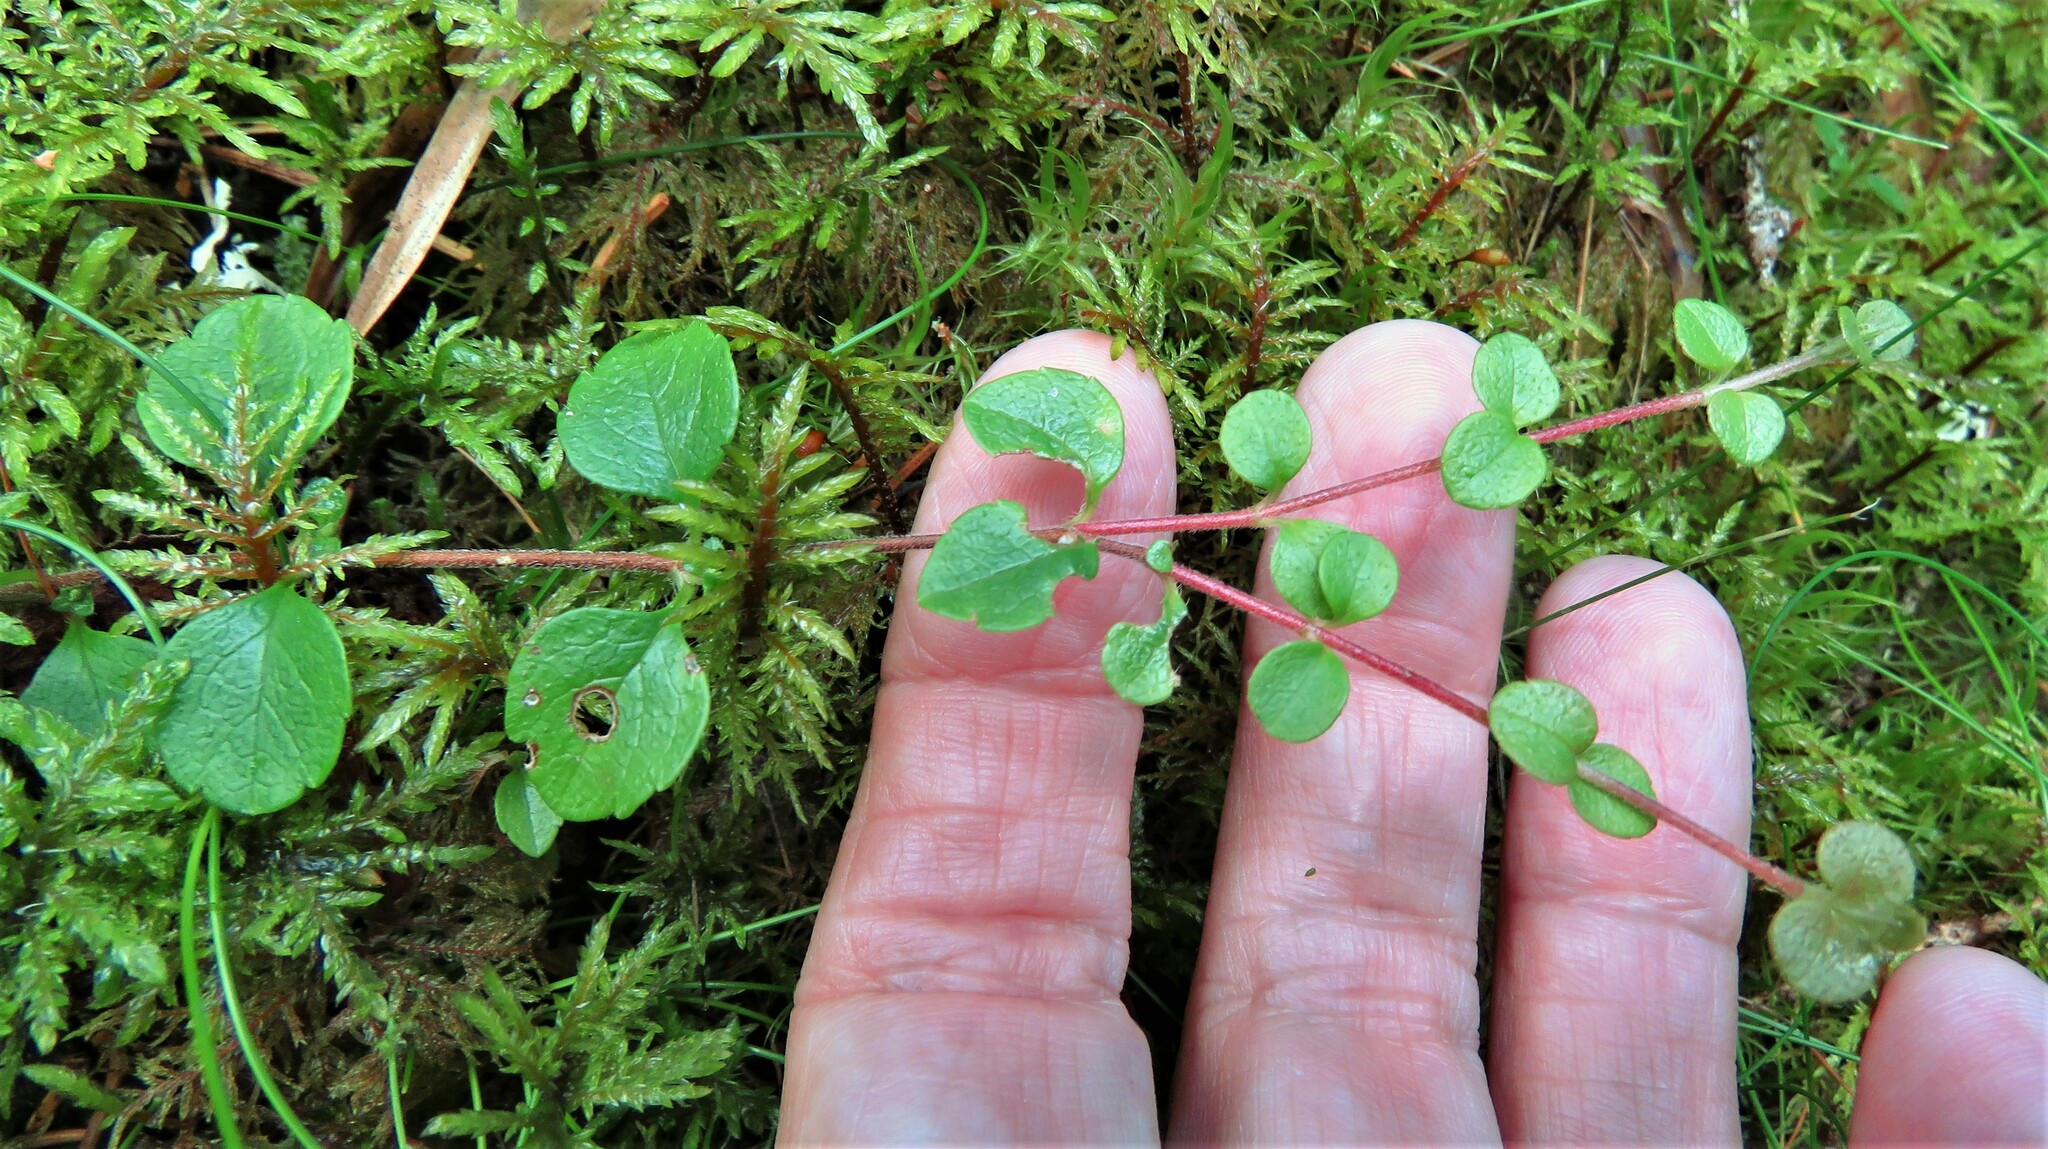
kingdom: Plantae
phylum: Tracheophyta
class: Magnoliopsida
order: Dipsacales
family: Caprifoliaceae
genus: Linnaea
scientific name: Linnaea borealis
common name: Twinflower
